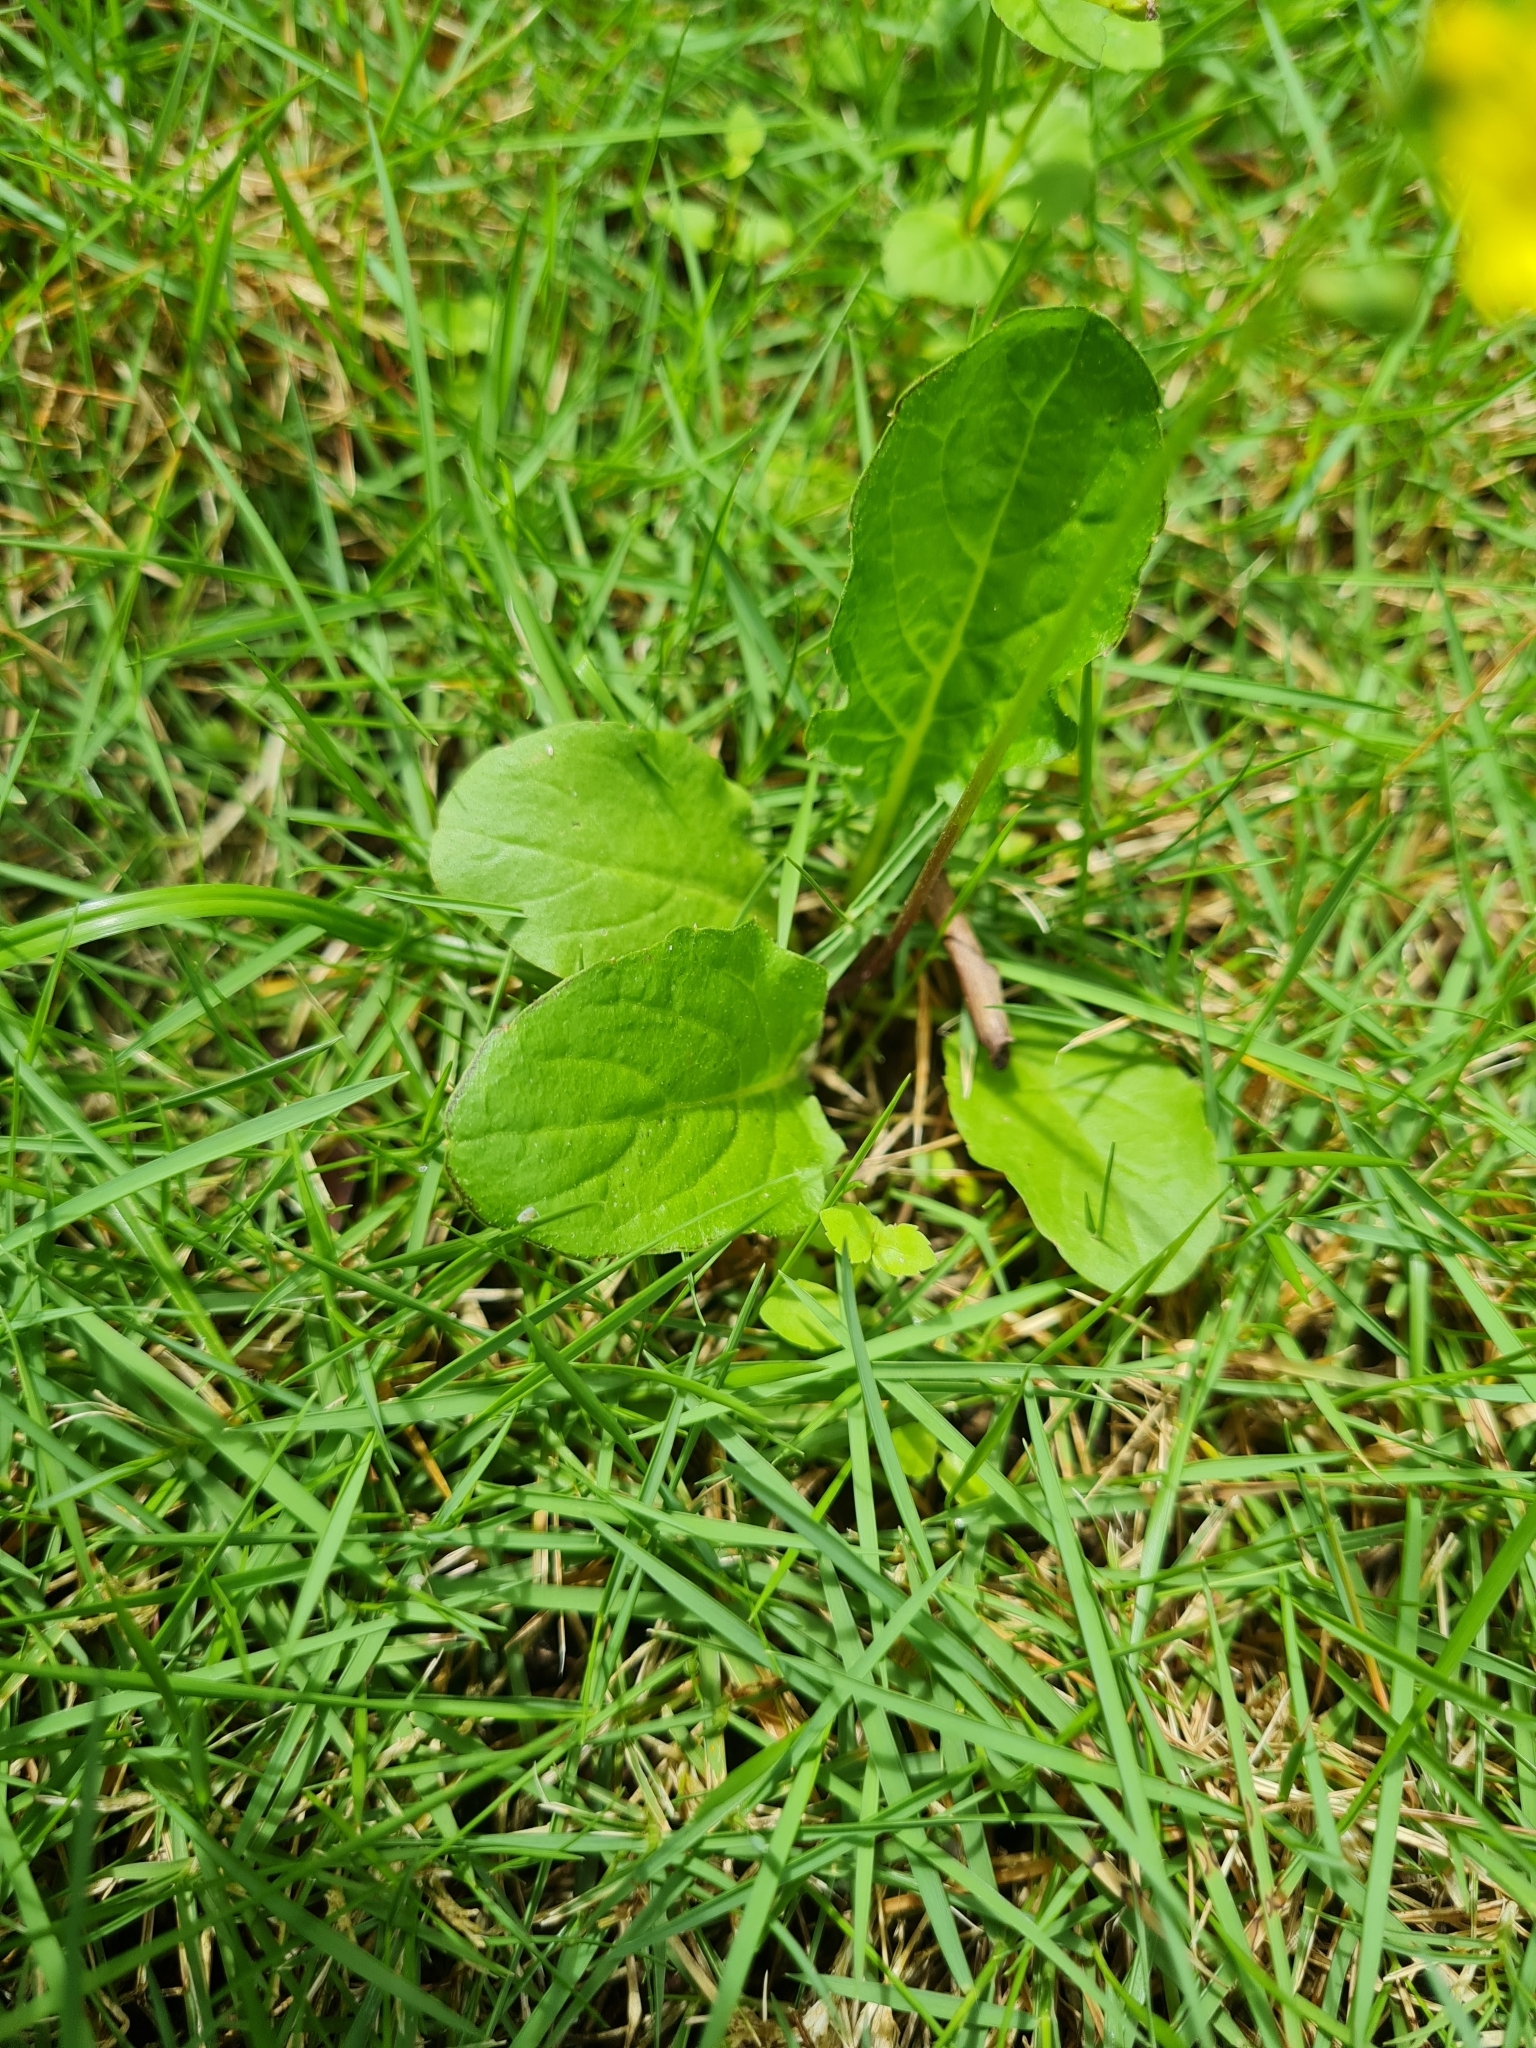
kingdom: Plantae
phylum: Tracheophyta
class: Magnoliopsida
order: Asterales
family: Asteraceae
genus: Youngia
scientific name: Youngia japonica
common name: Oriental false hawksbeard
